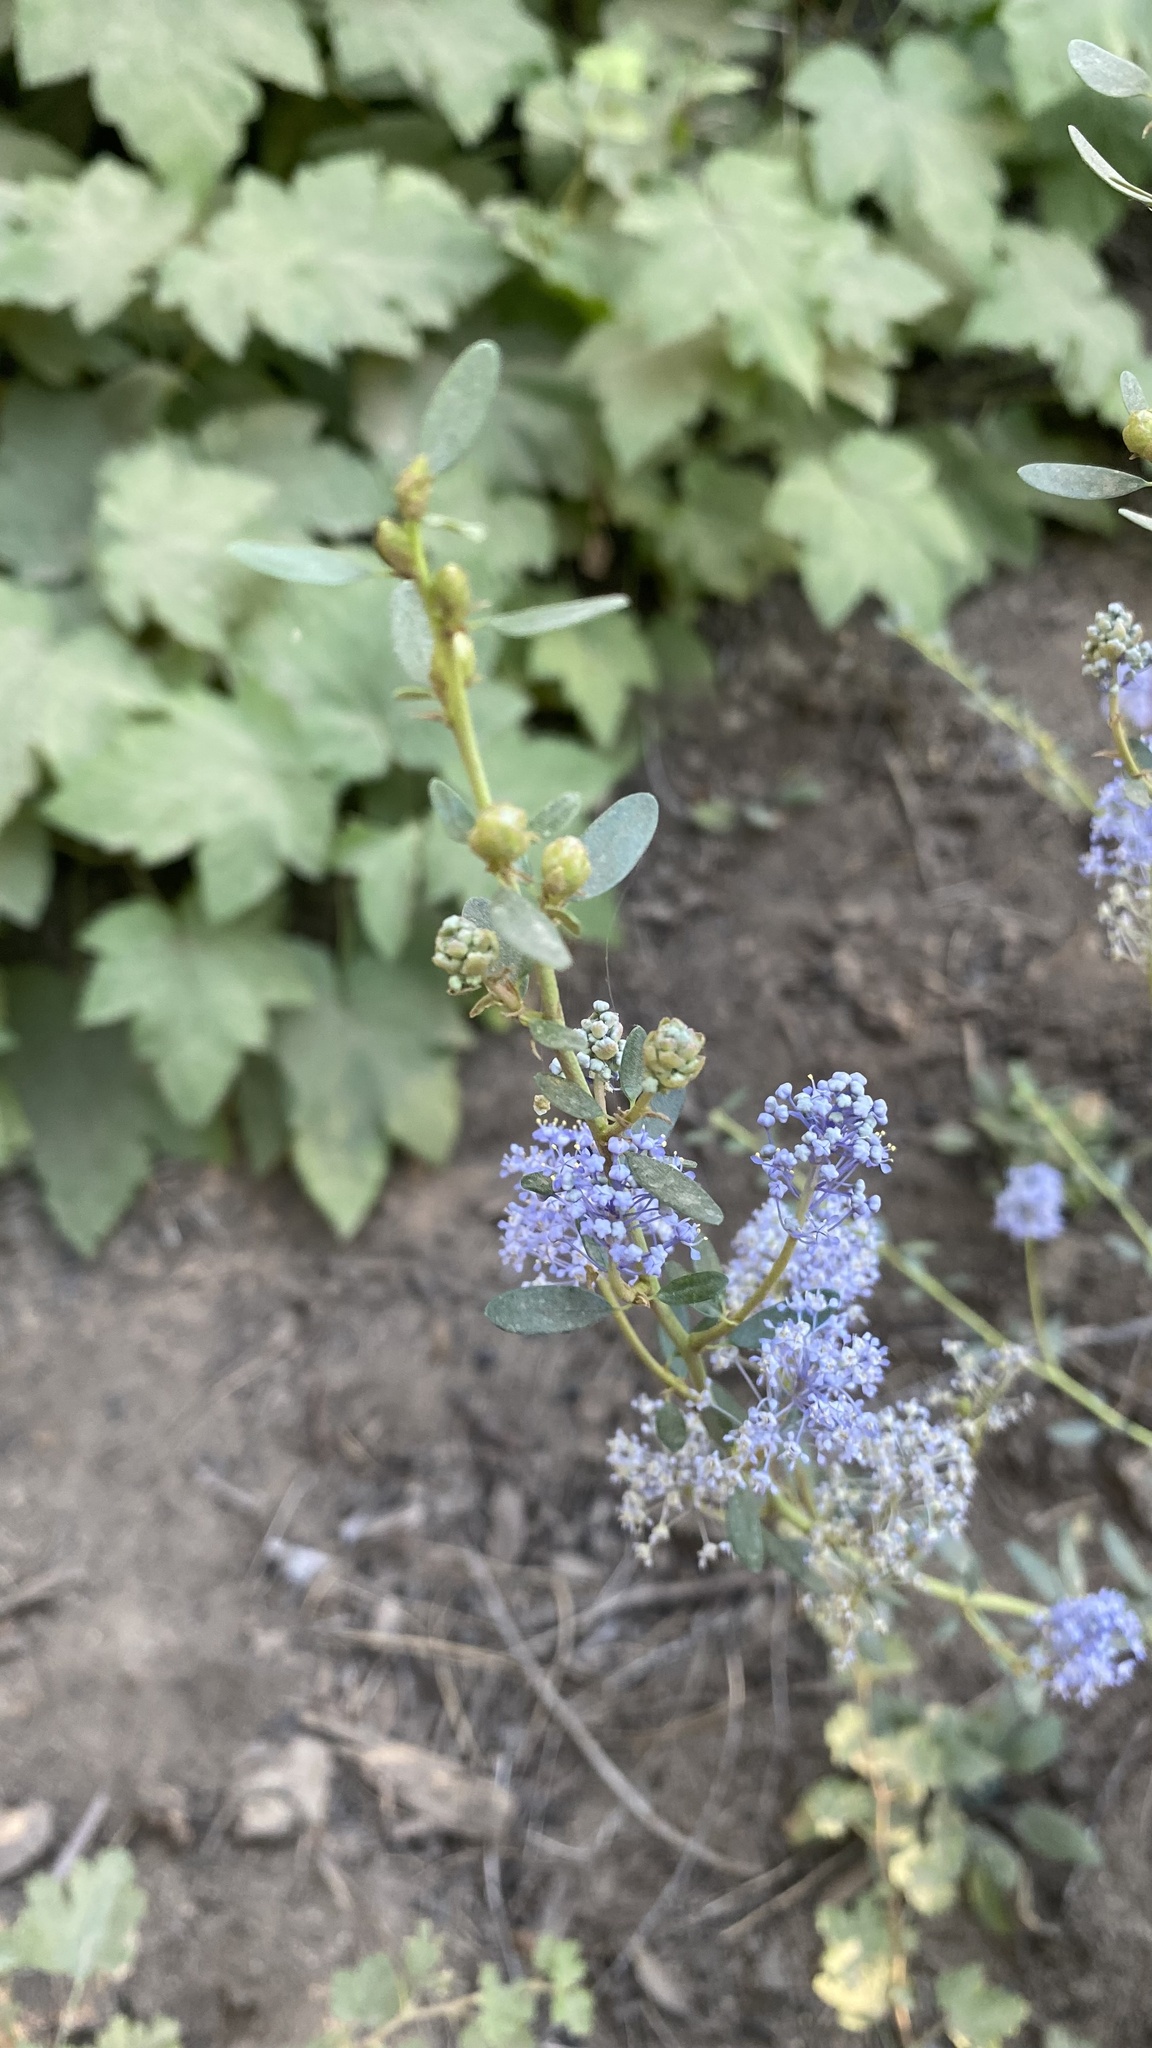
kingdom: Plantae
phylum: Tracheophyta
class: Magnoliopsida
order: Rosales
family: Rhamnaceae
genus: Ceanothus
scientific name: Ceanothus parvifolius
